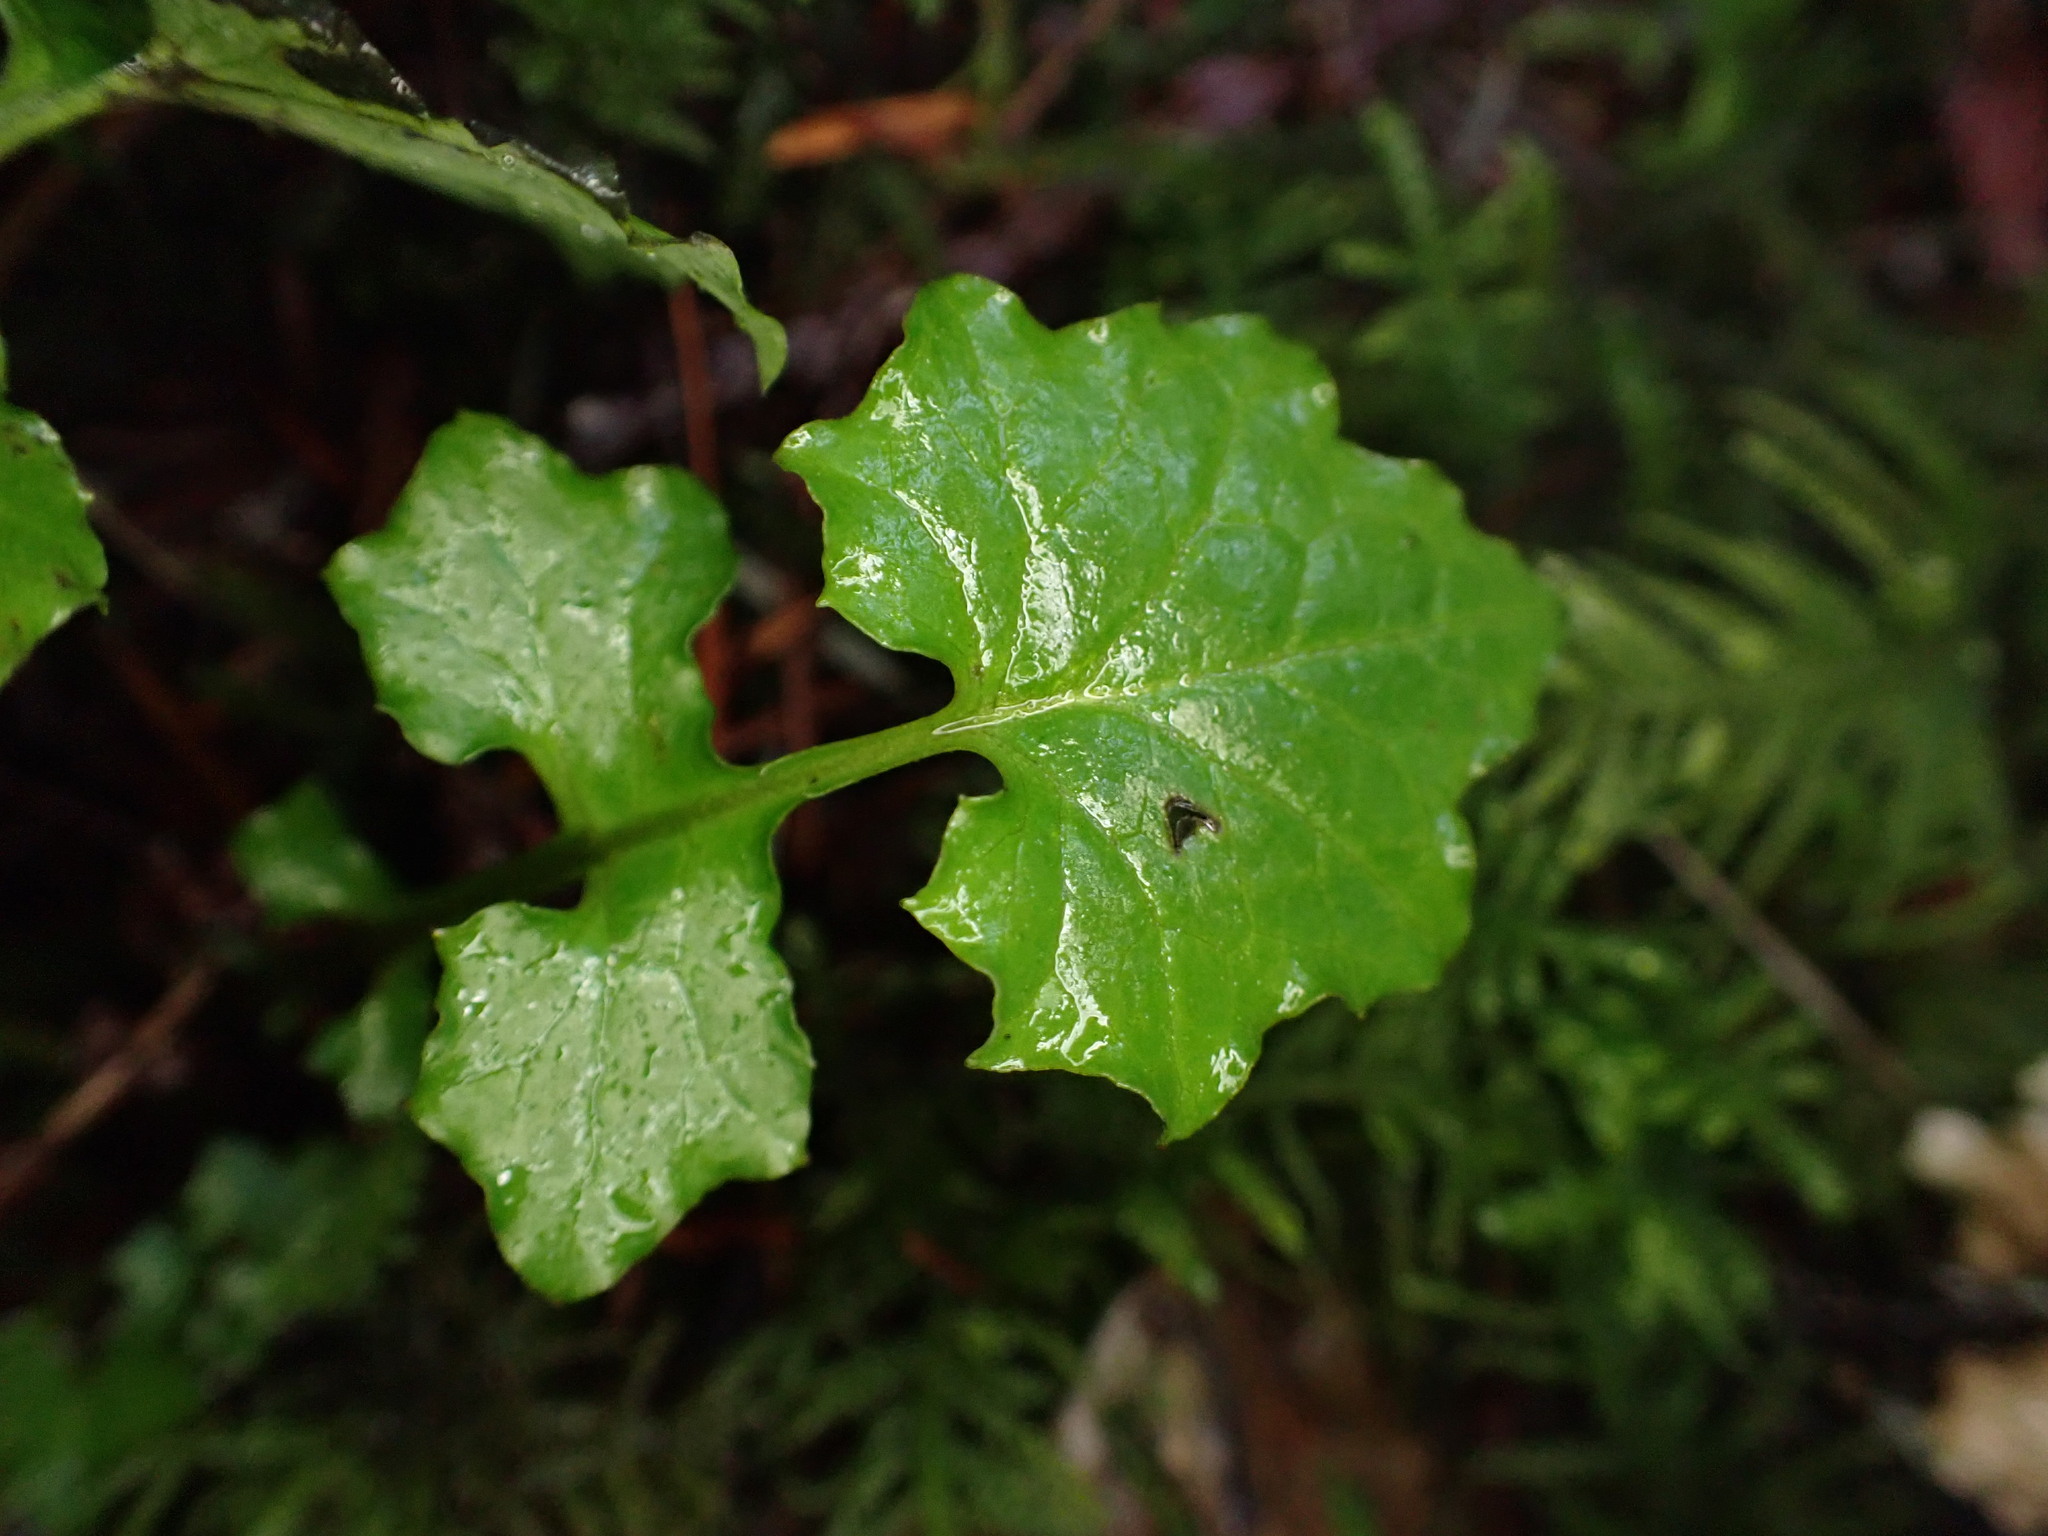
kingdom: Plantae
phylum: Tracheophyta
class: Magnoliopsida
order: Asterales
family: Asteraceae
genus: Mycelis
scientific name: Mycelis muralis
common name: Wall lettuce
